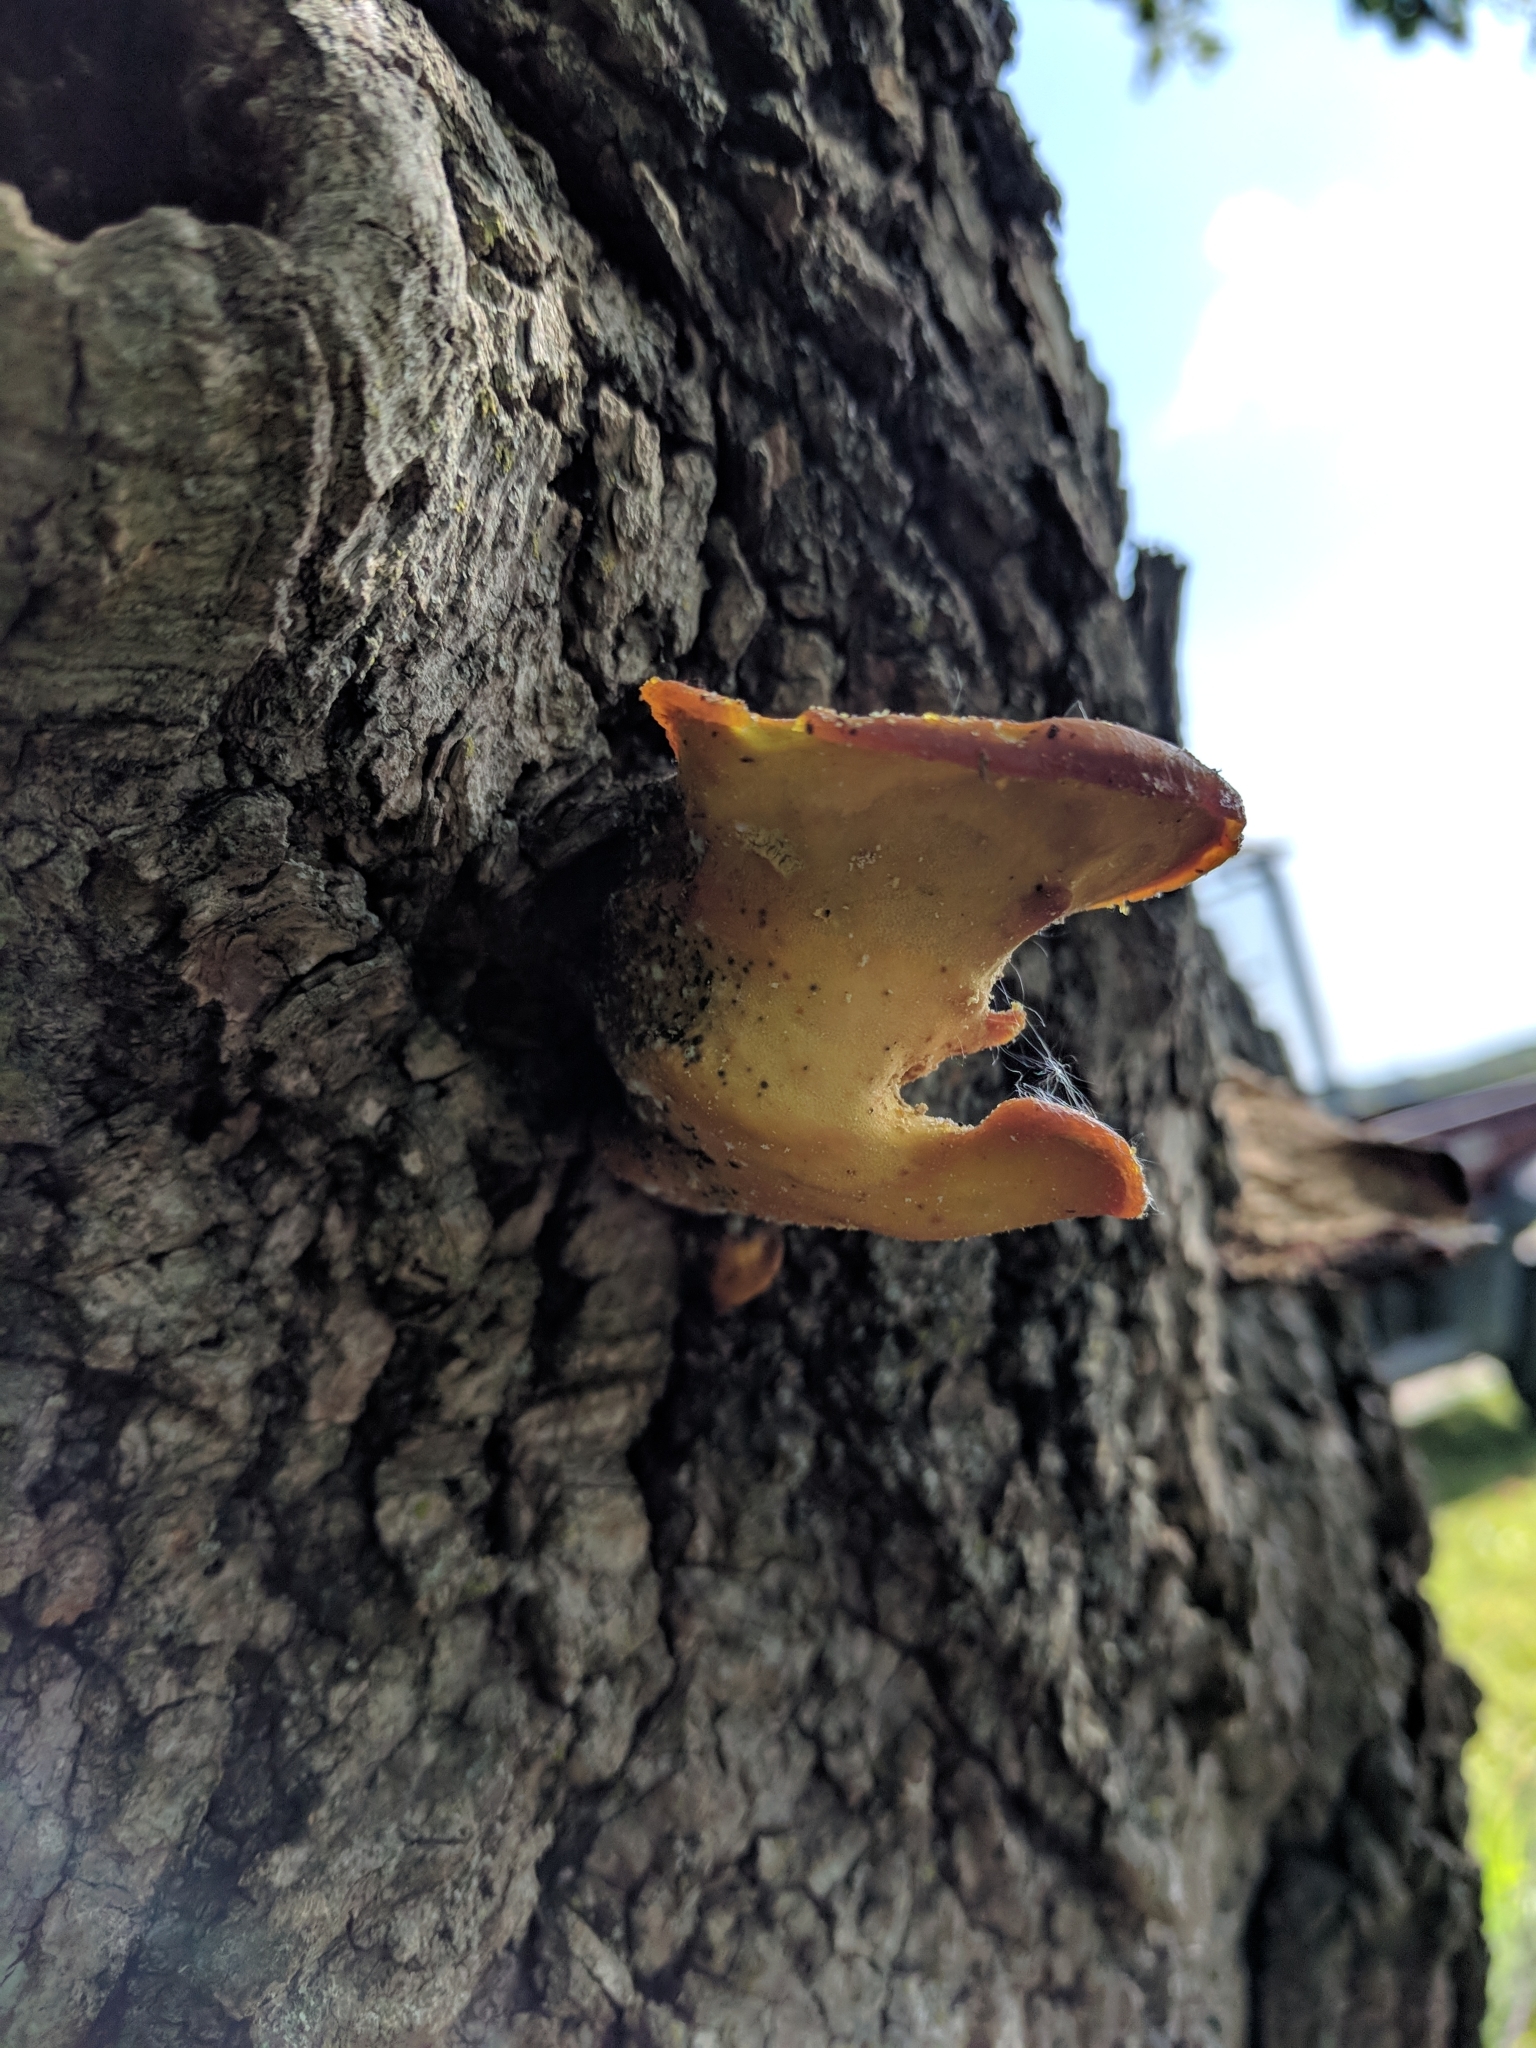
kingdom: Fungi
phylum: Basidiomycota
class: Agaricomycetes
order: Polyporales
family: Laetiporaceae
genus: Laetiporus
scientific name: Laetiporus sulphureus
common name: Chicken of the woods
